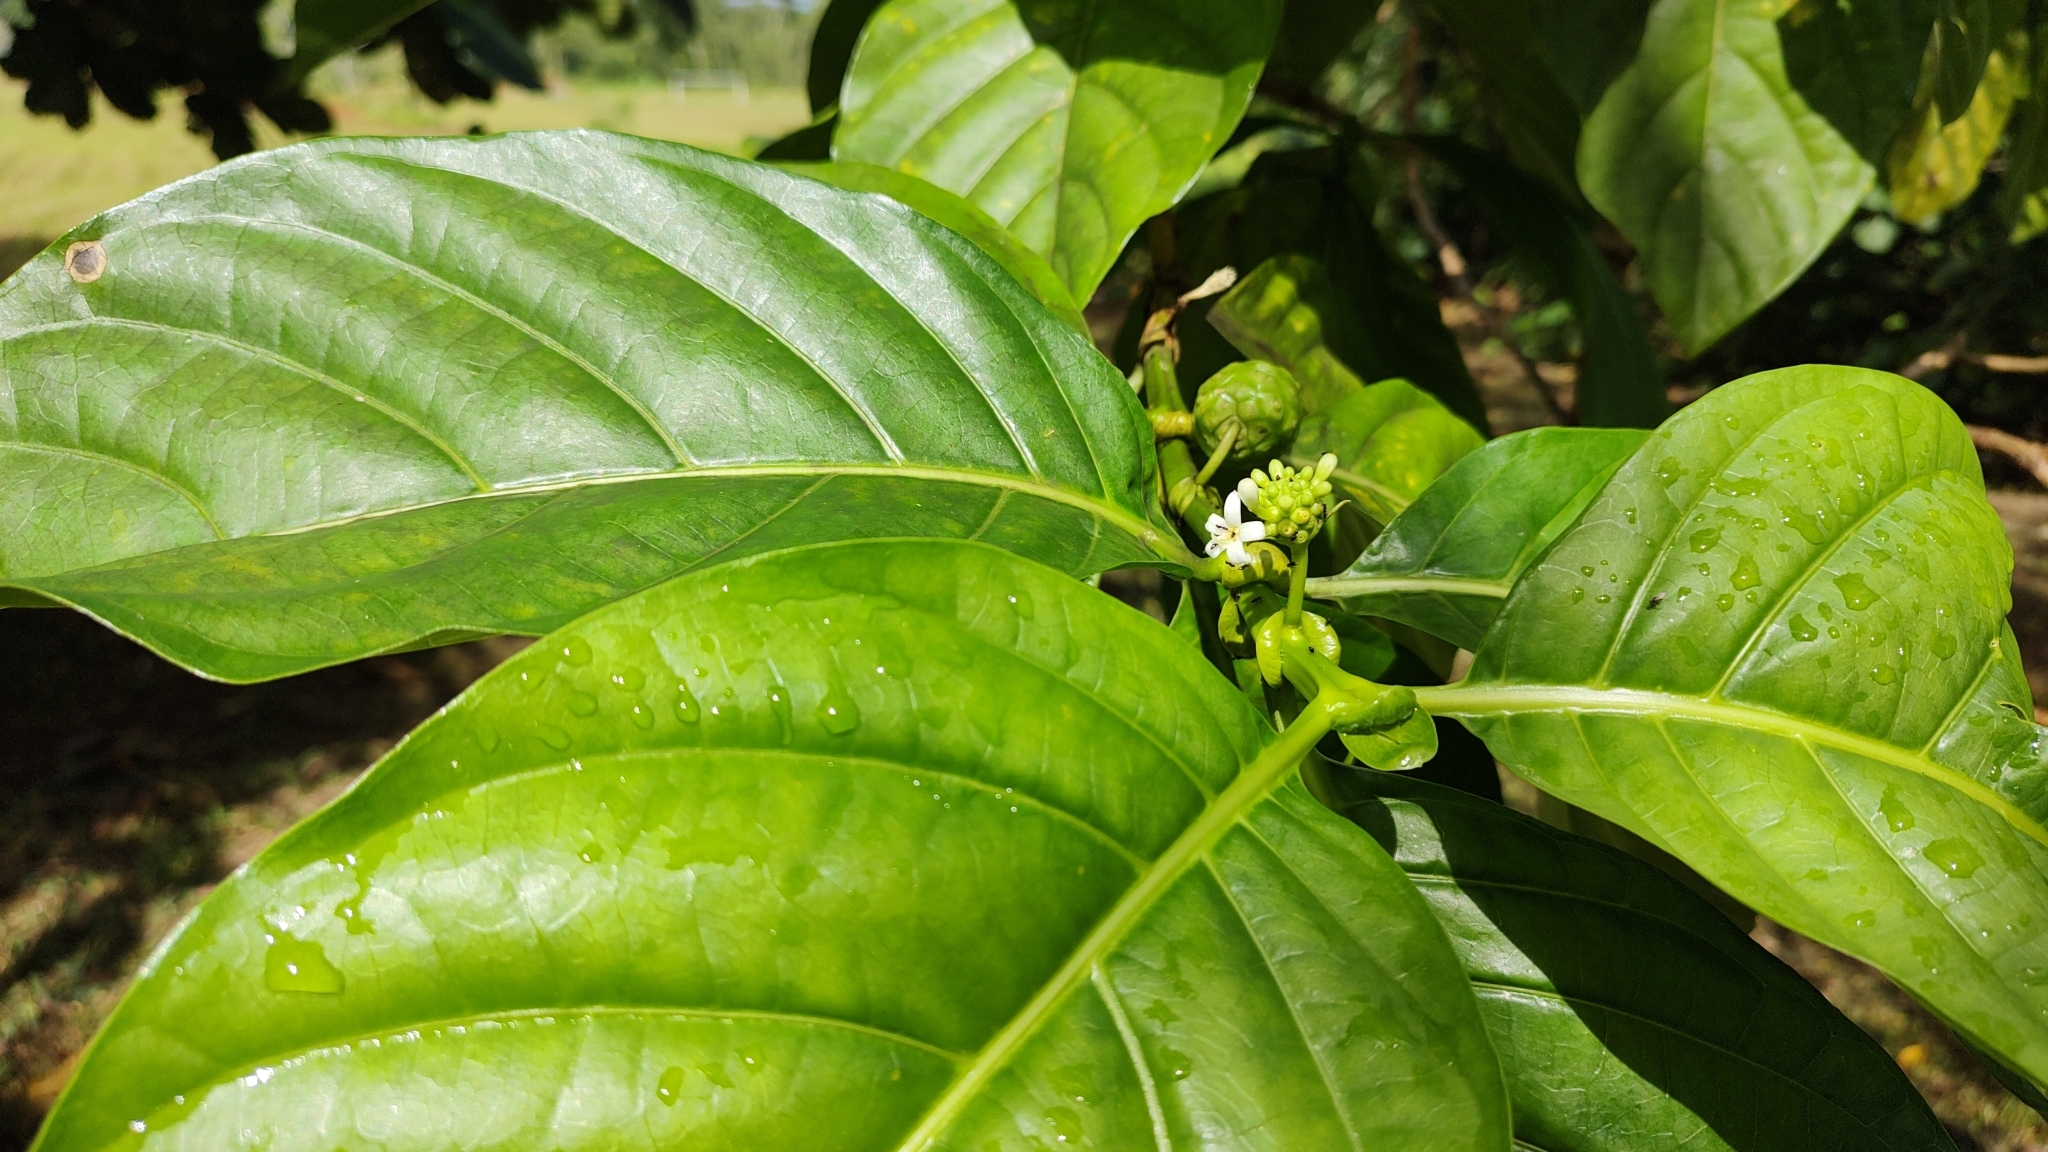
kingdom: Plantae
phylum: Tracheophyta
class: Magnoliopsida
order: Gentianales
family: Rubiaceae
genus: Morinda
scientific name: Morinda citrifolia
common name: Indian-mulberry
